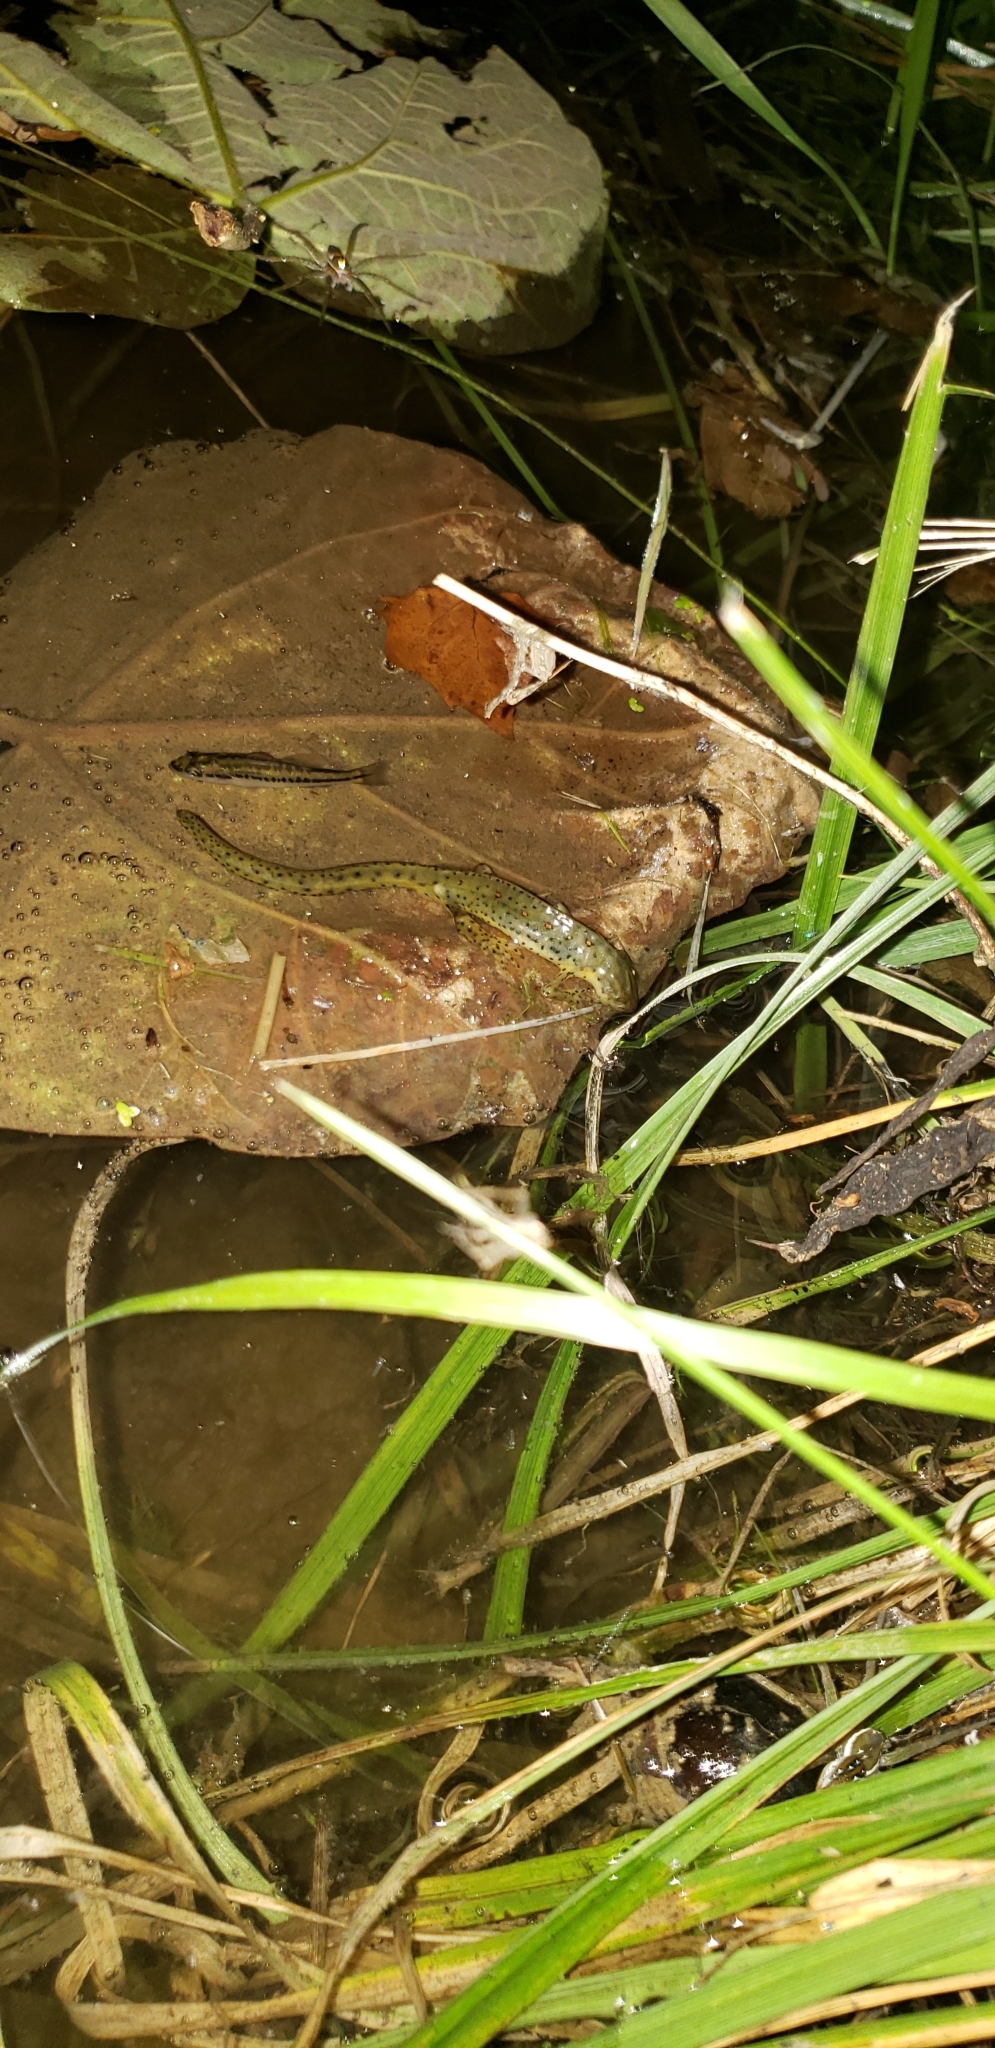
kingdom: Animalia
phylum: Chordata
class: Amphibia
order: Caudata
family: Salamandridae
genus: Notophthalmus
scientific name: Notophthalmus viridescens
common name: Eastern newt
